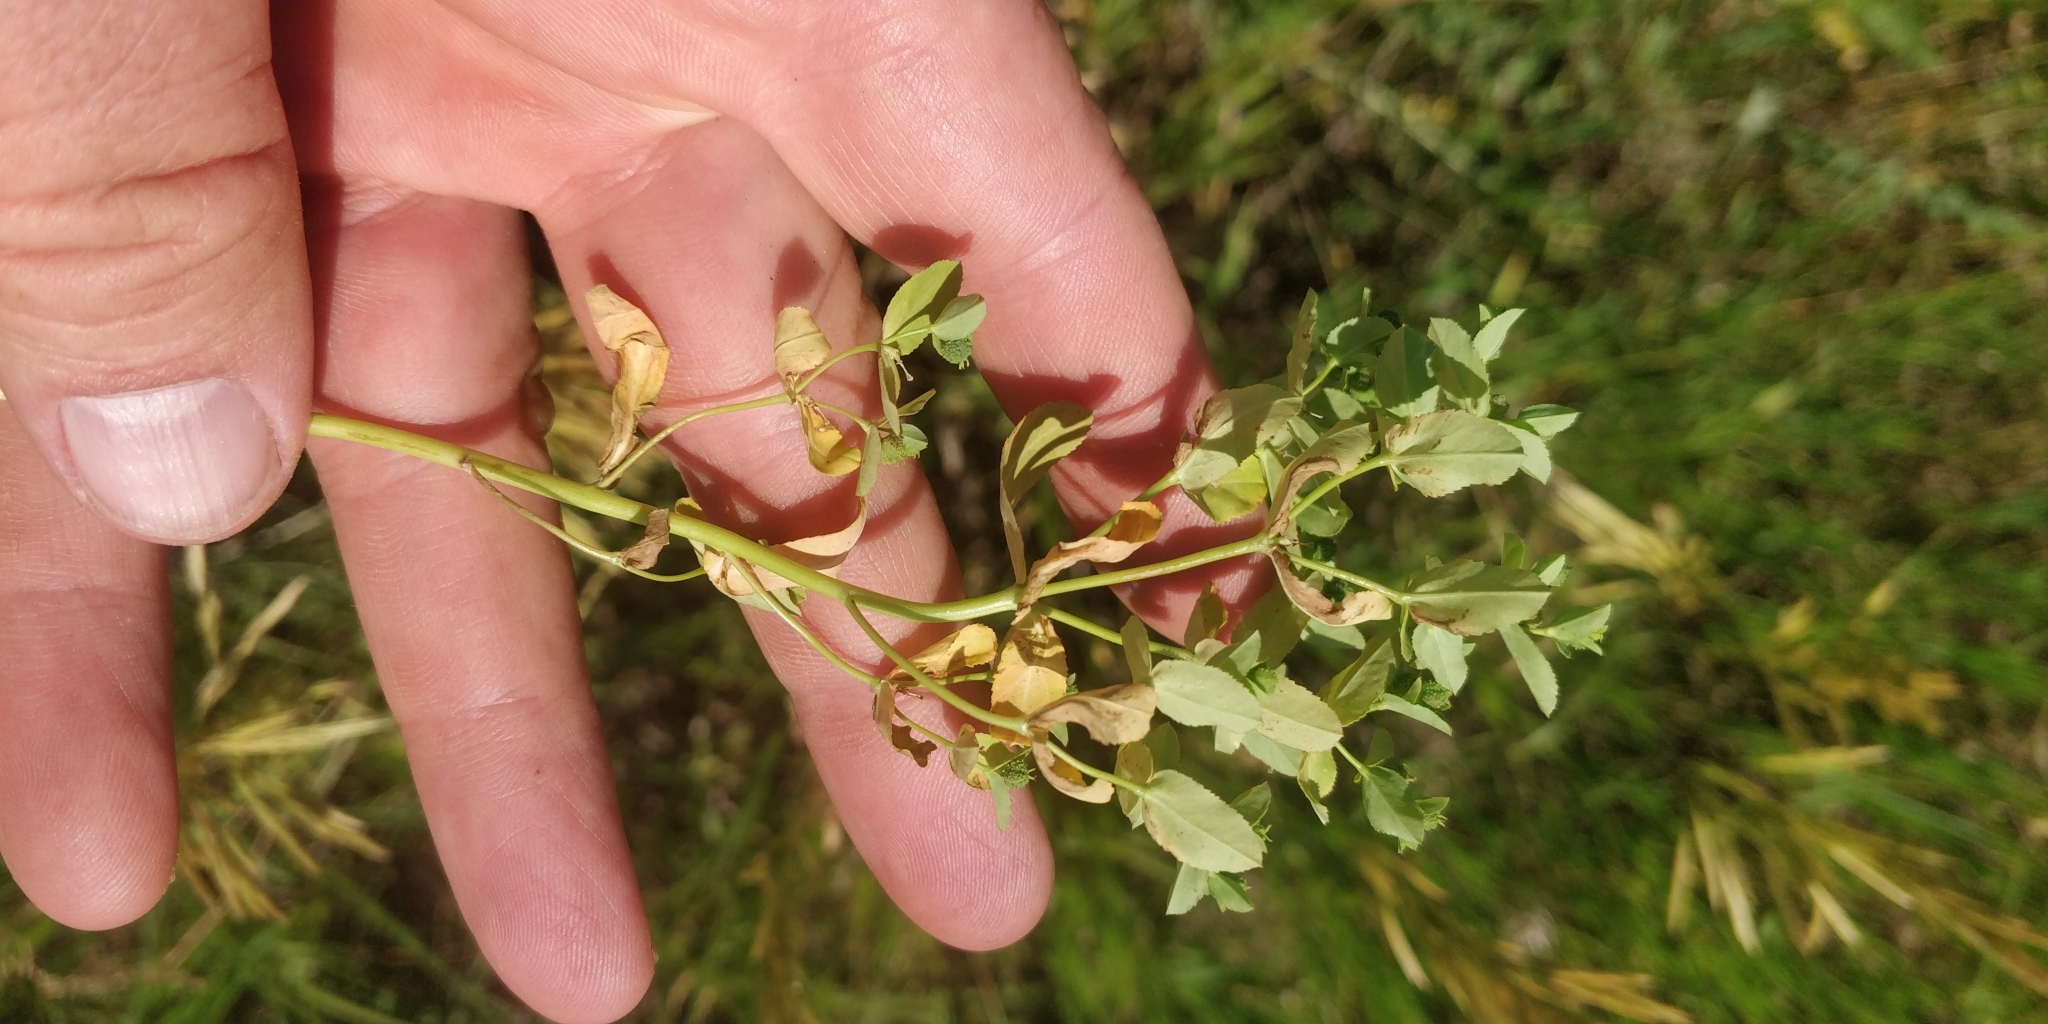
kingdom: Plantae
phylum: Tracheophyta
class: Magnoliopsida
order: Malpighiales
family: Euphorbiaceae
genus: Euphorbia
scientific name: Euphorbia spathulata
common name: Blunt spurge
